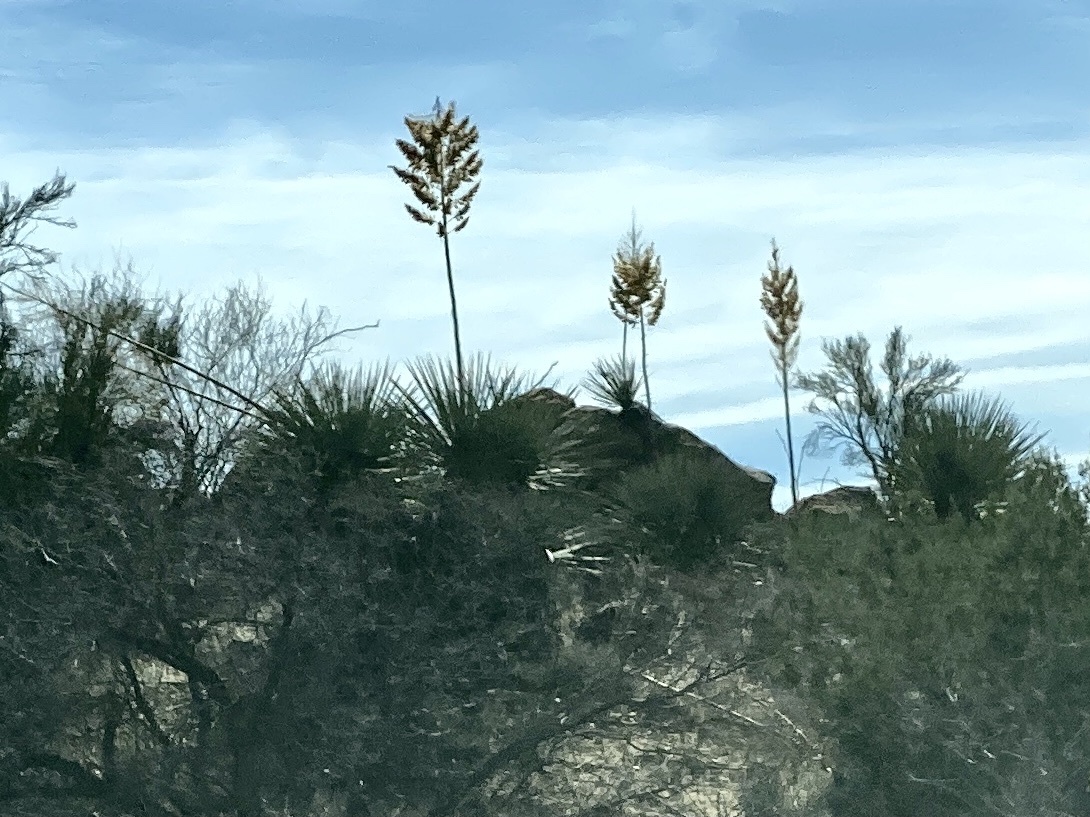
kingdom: Plantae
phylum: Tracheophyta
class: Liliopsida
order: Asparagales
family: Asparagaceae
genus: Nolina
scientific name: Nolina bigelovii
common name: Bigelow bear-grass
